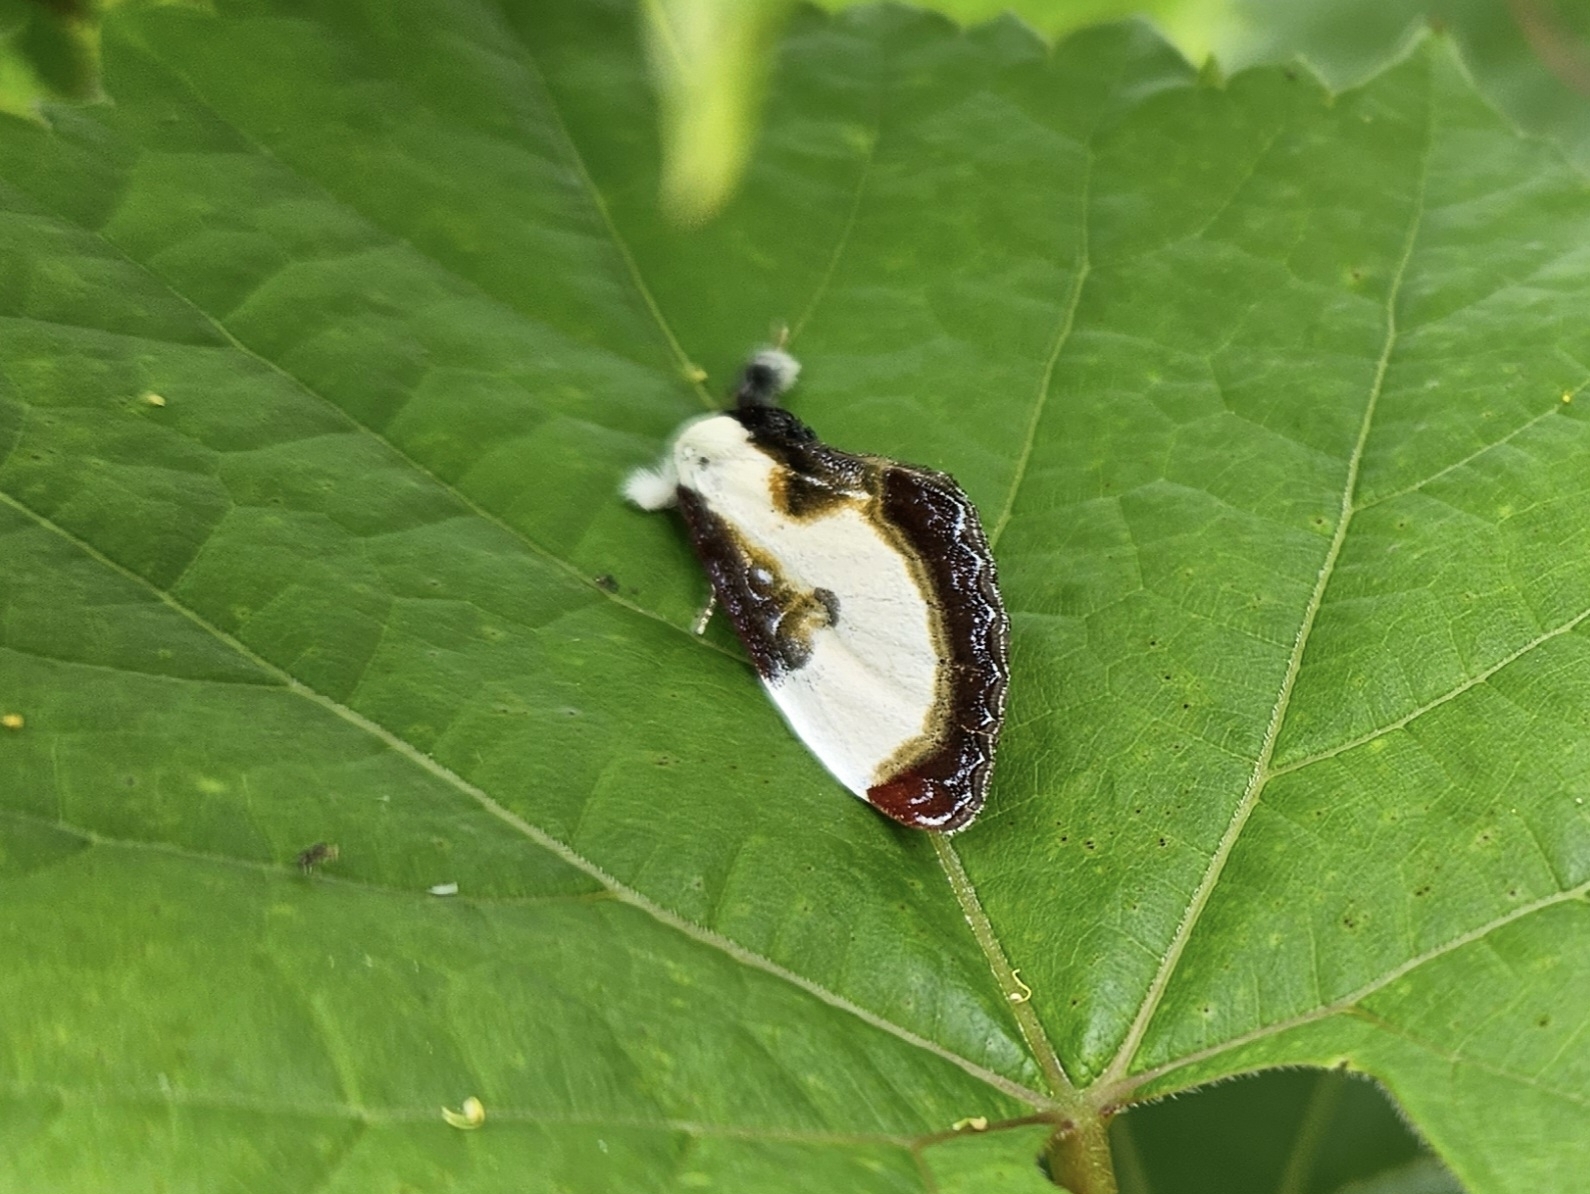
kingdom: Animalia
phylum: Arthropoda
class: Insecta
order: Lepidoptera
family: Noctuidae
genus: Eudryas
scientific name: Eudryas grata
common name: Beautiful wood-nymph
